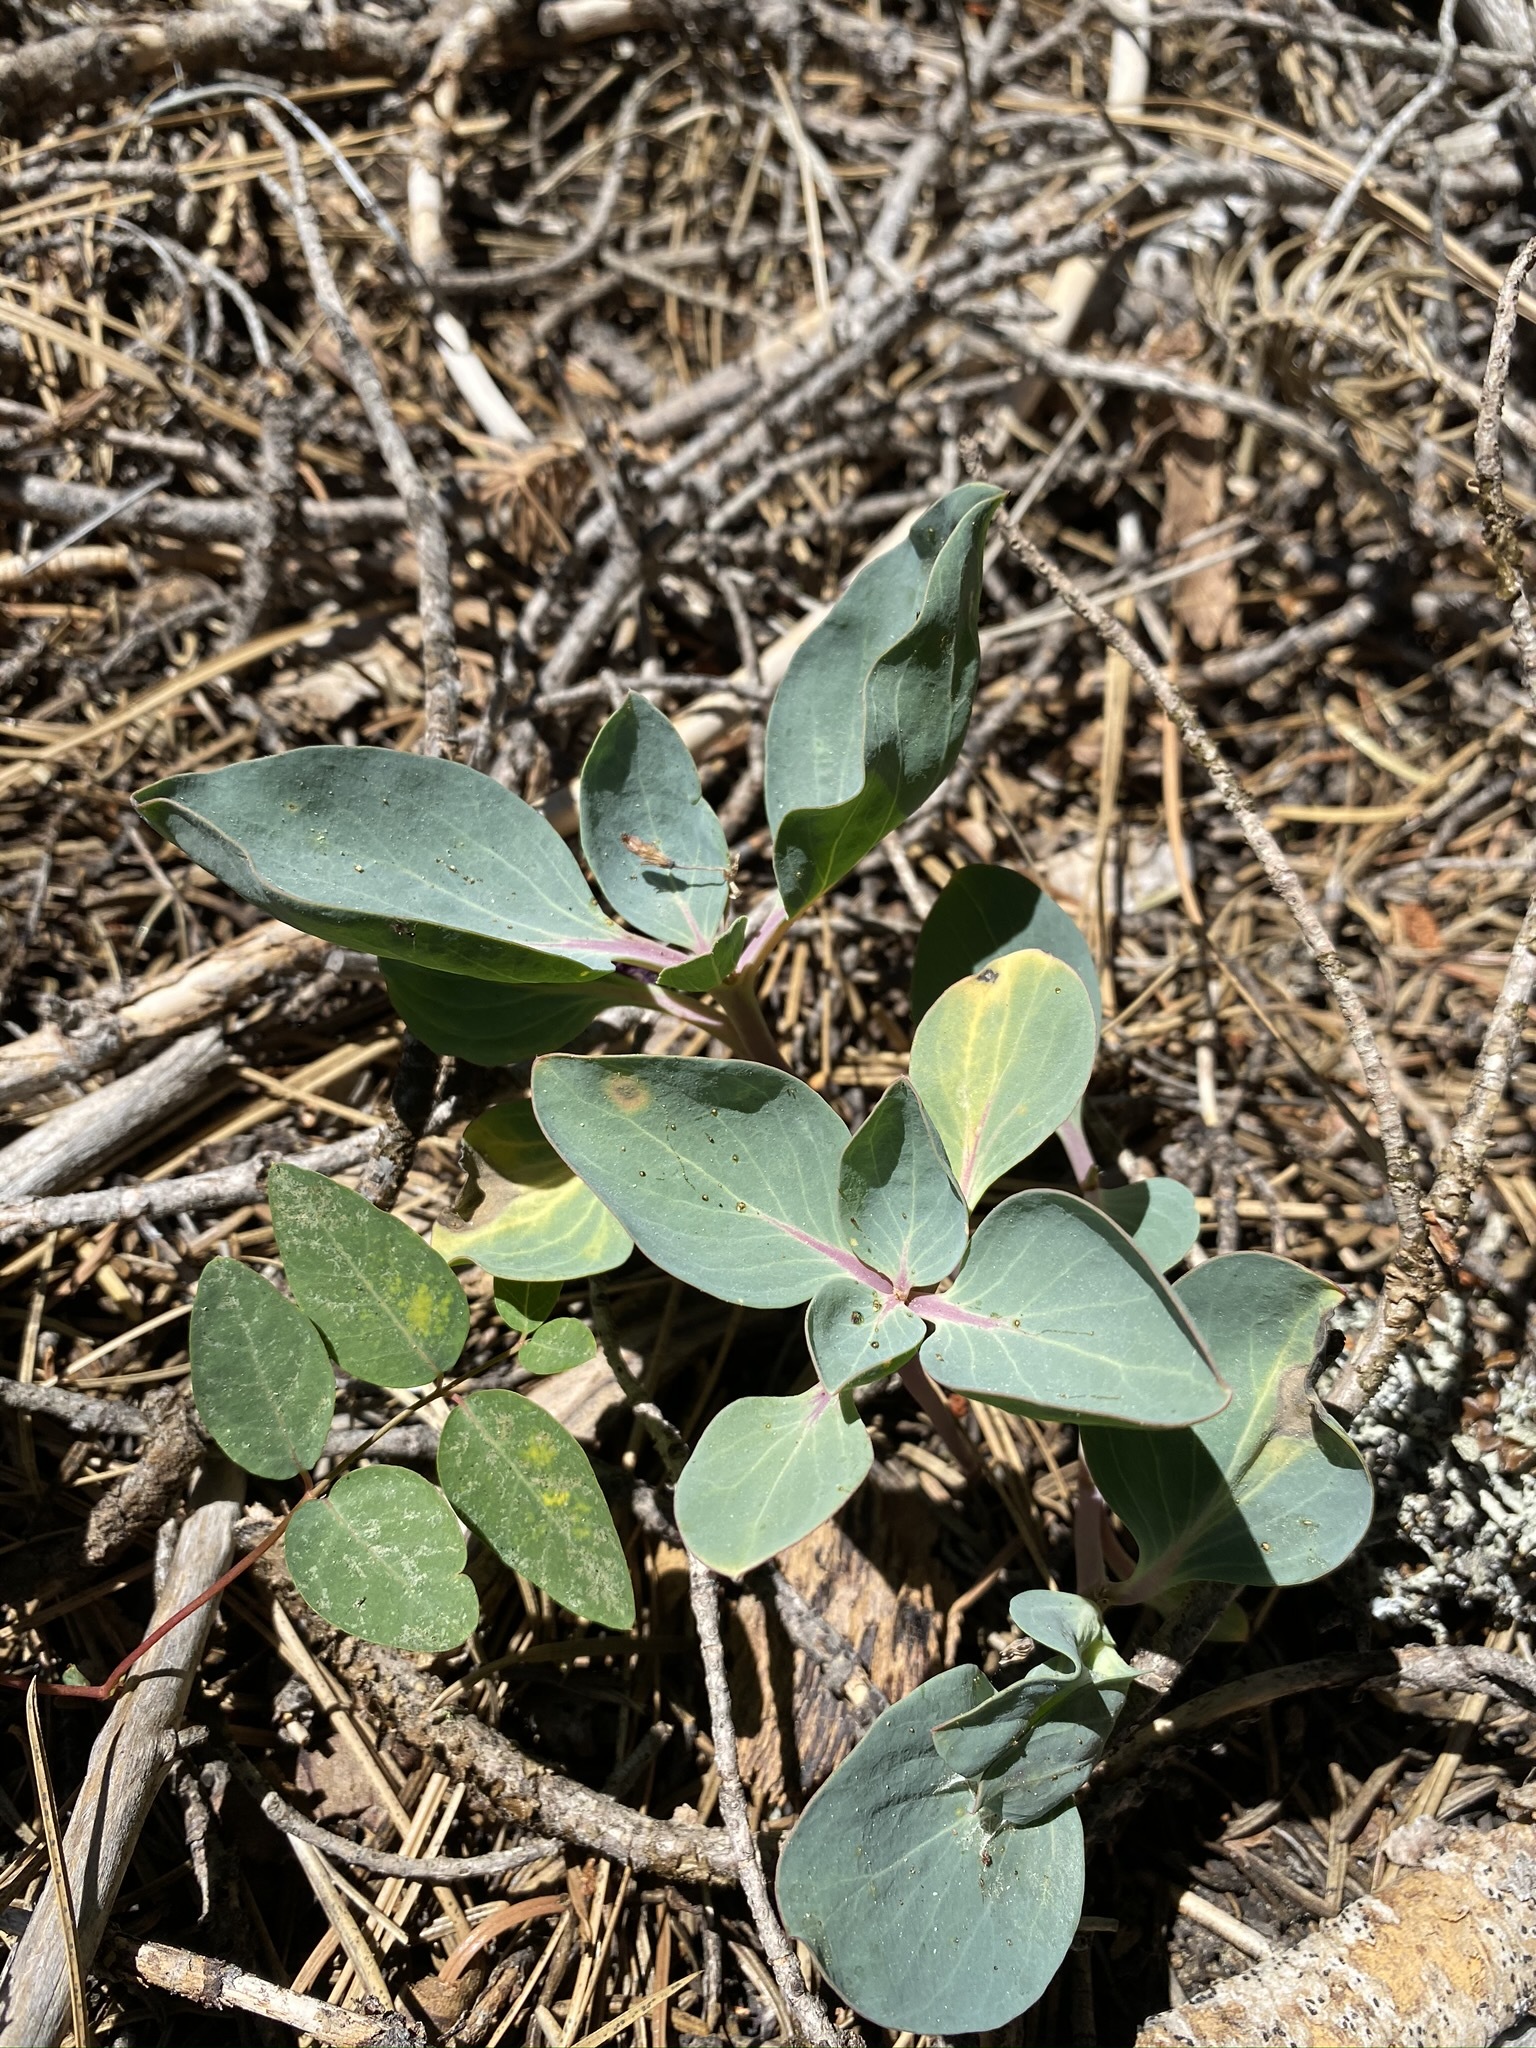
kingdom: Plantae
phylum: Tracheophyta
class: Magnoliopsida
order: Gentianales
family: Apocynaceae
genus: Cycladenia
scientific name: Cycladenia humilis
